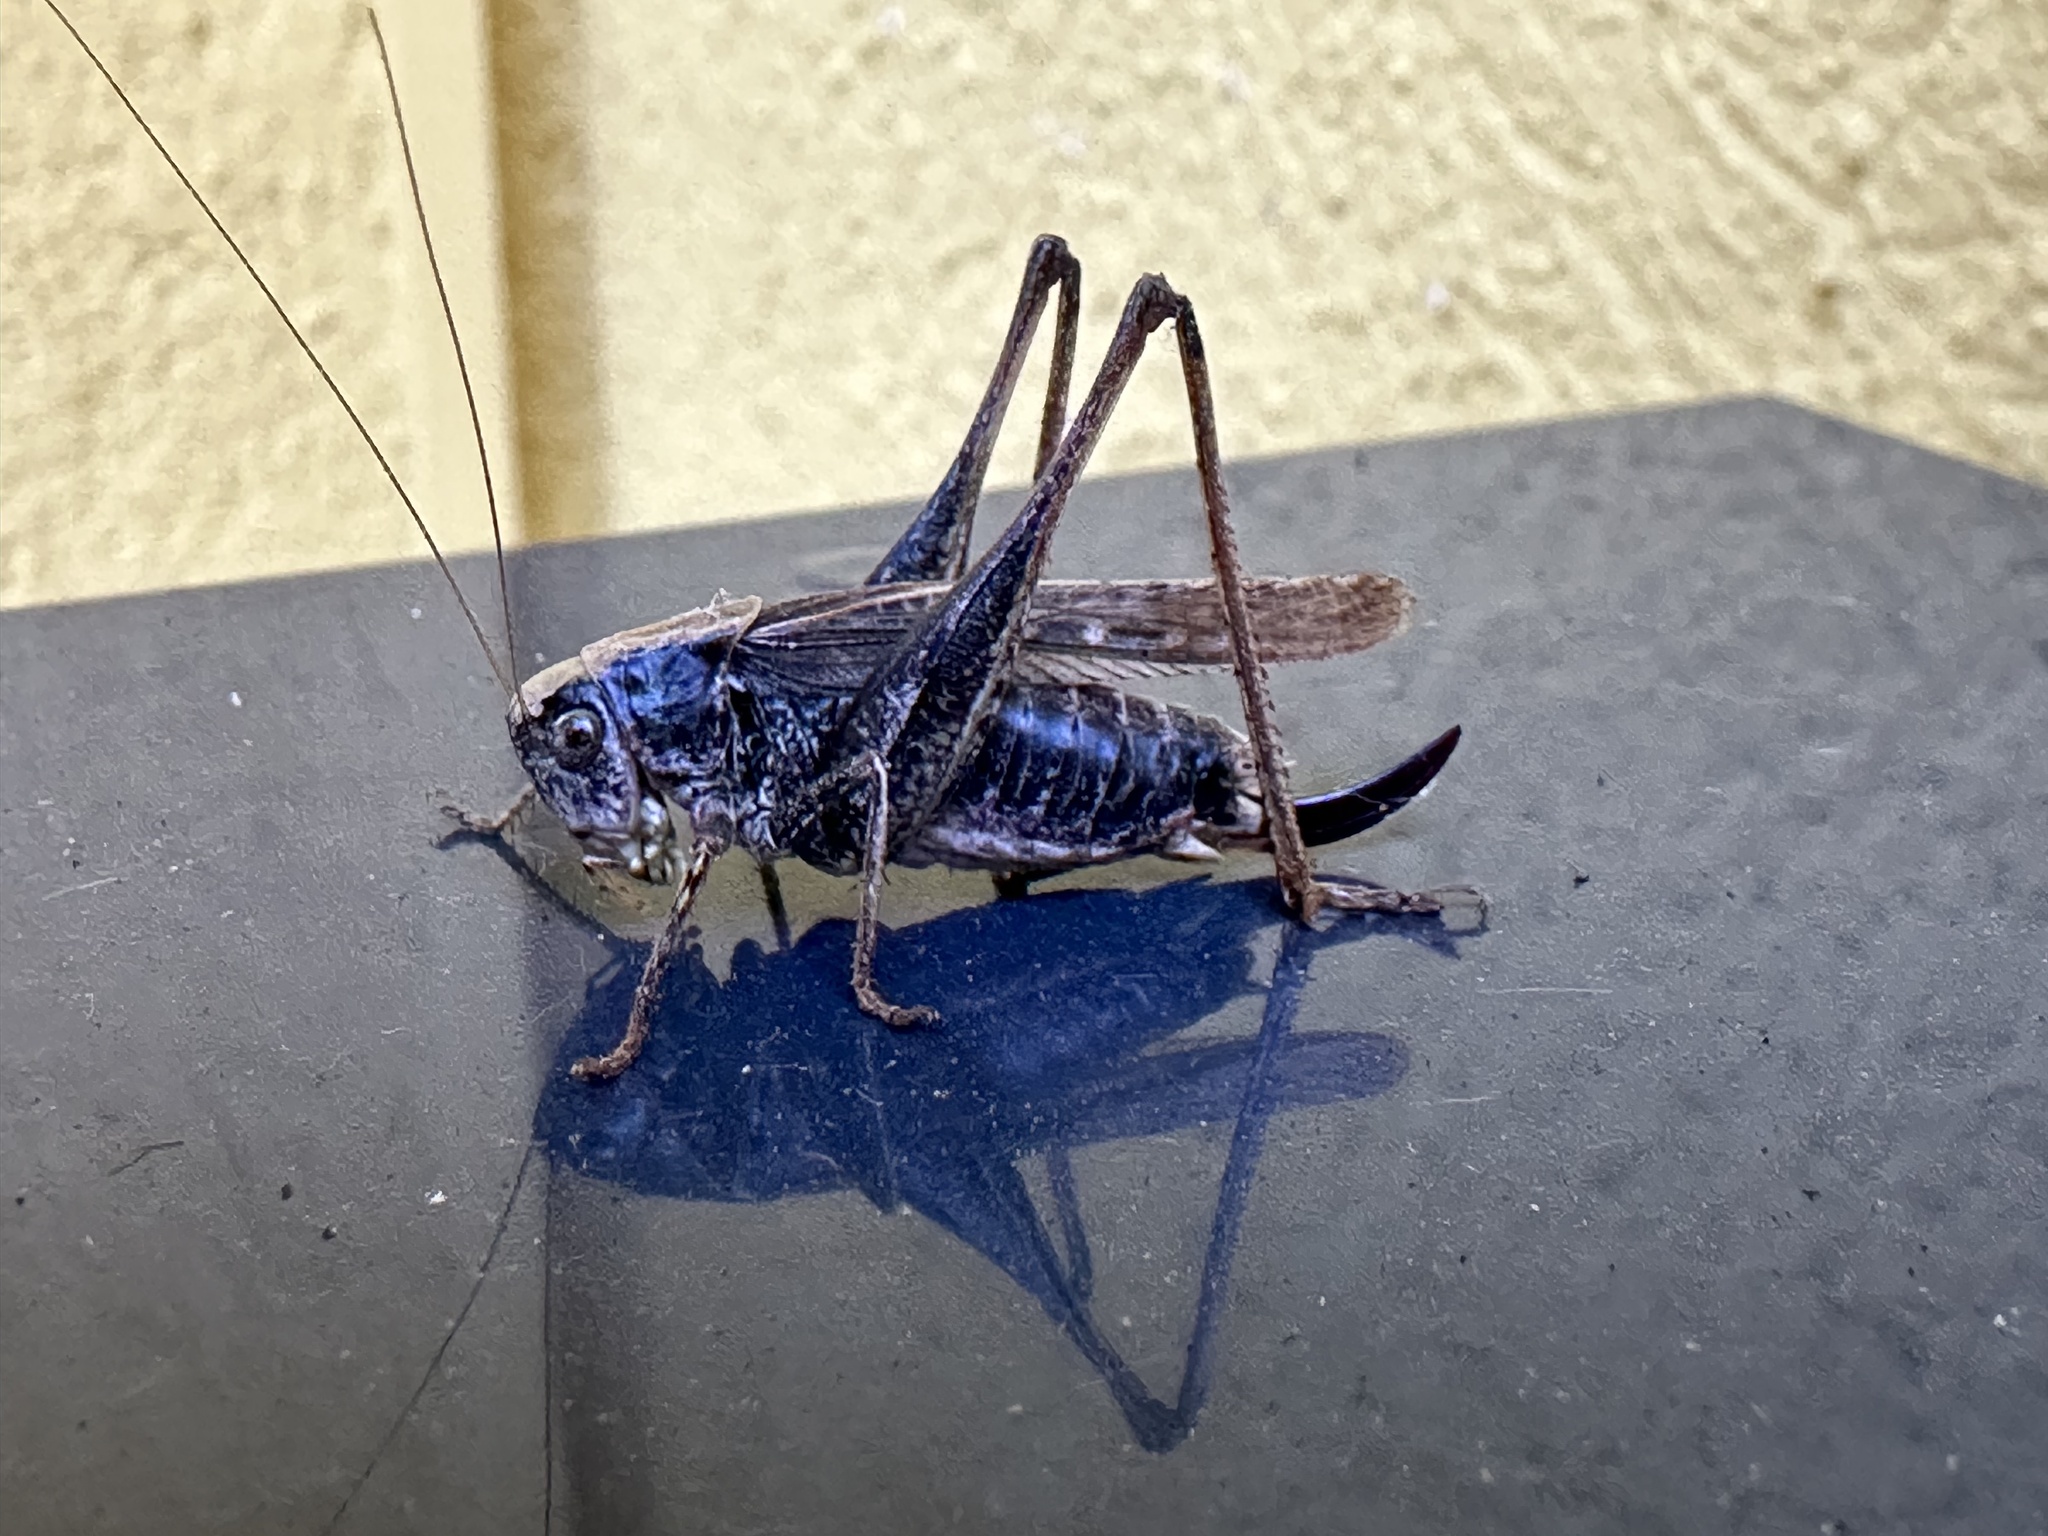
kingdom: Animalia
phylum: Arthropoda
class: Insecta
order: Orthoptera
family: Tettigoniidae
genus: Platycleis
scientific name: Platycleis albopunctata
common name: Grey bush-cricket
